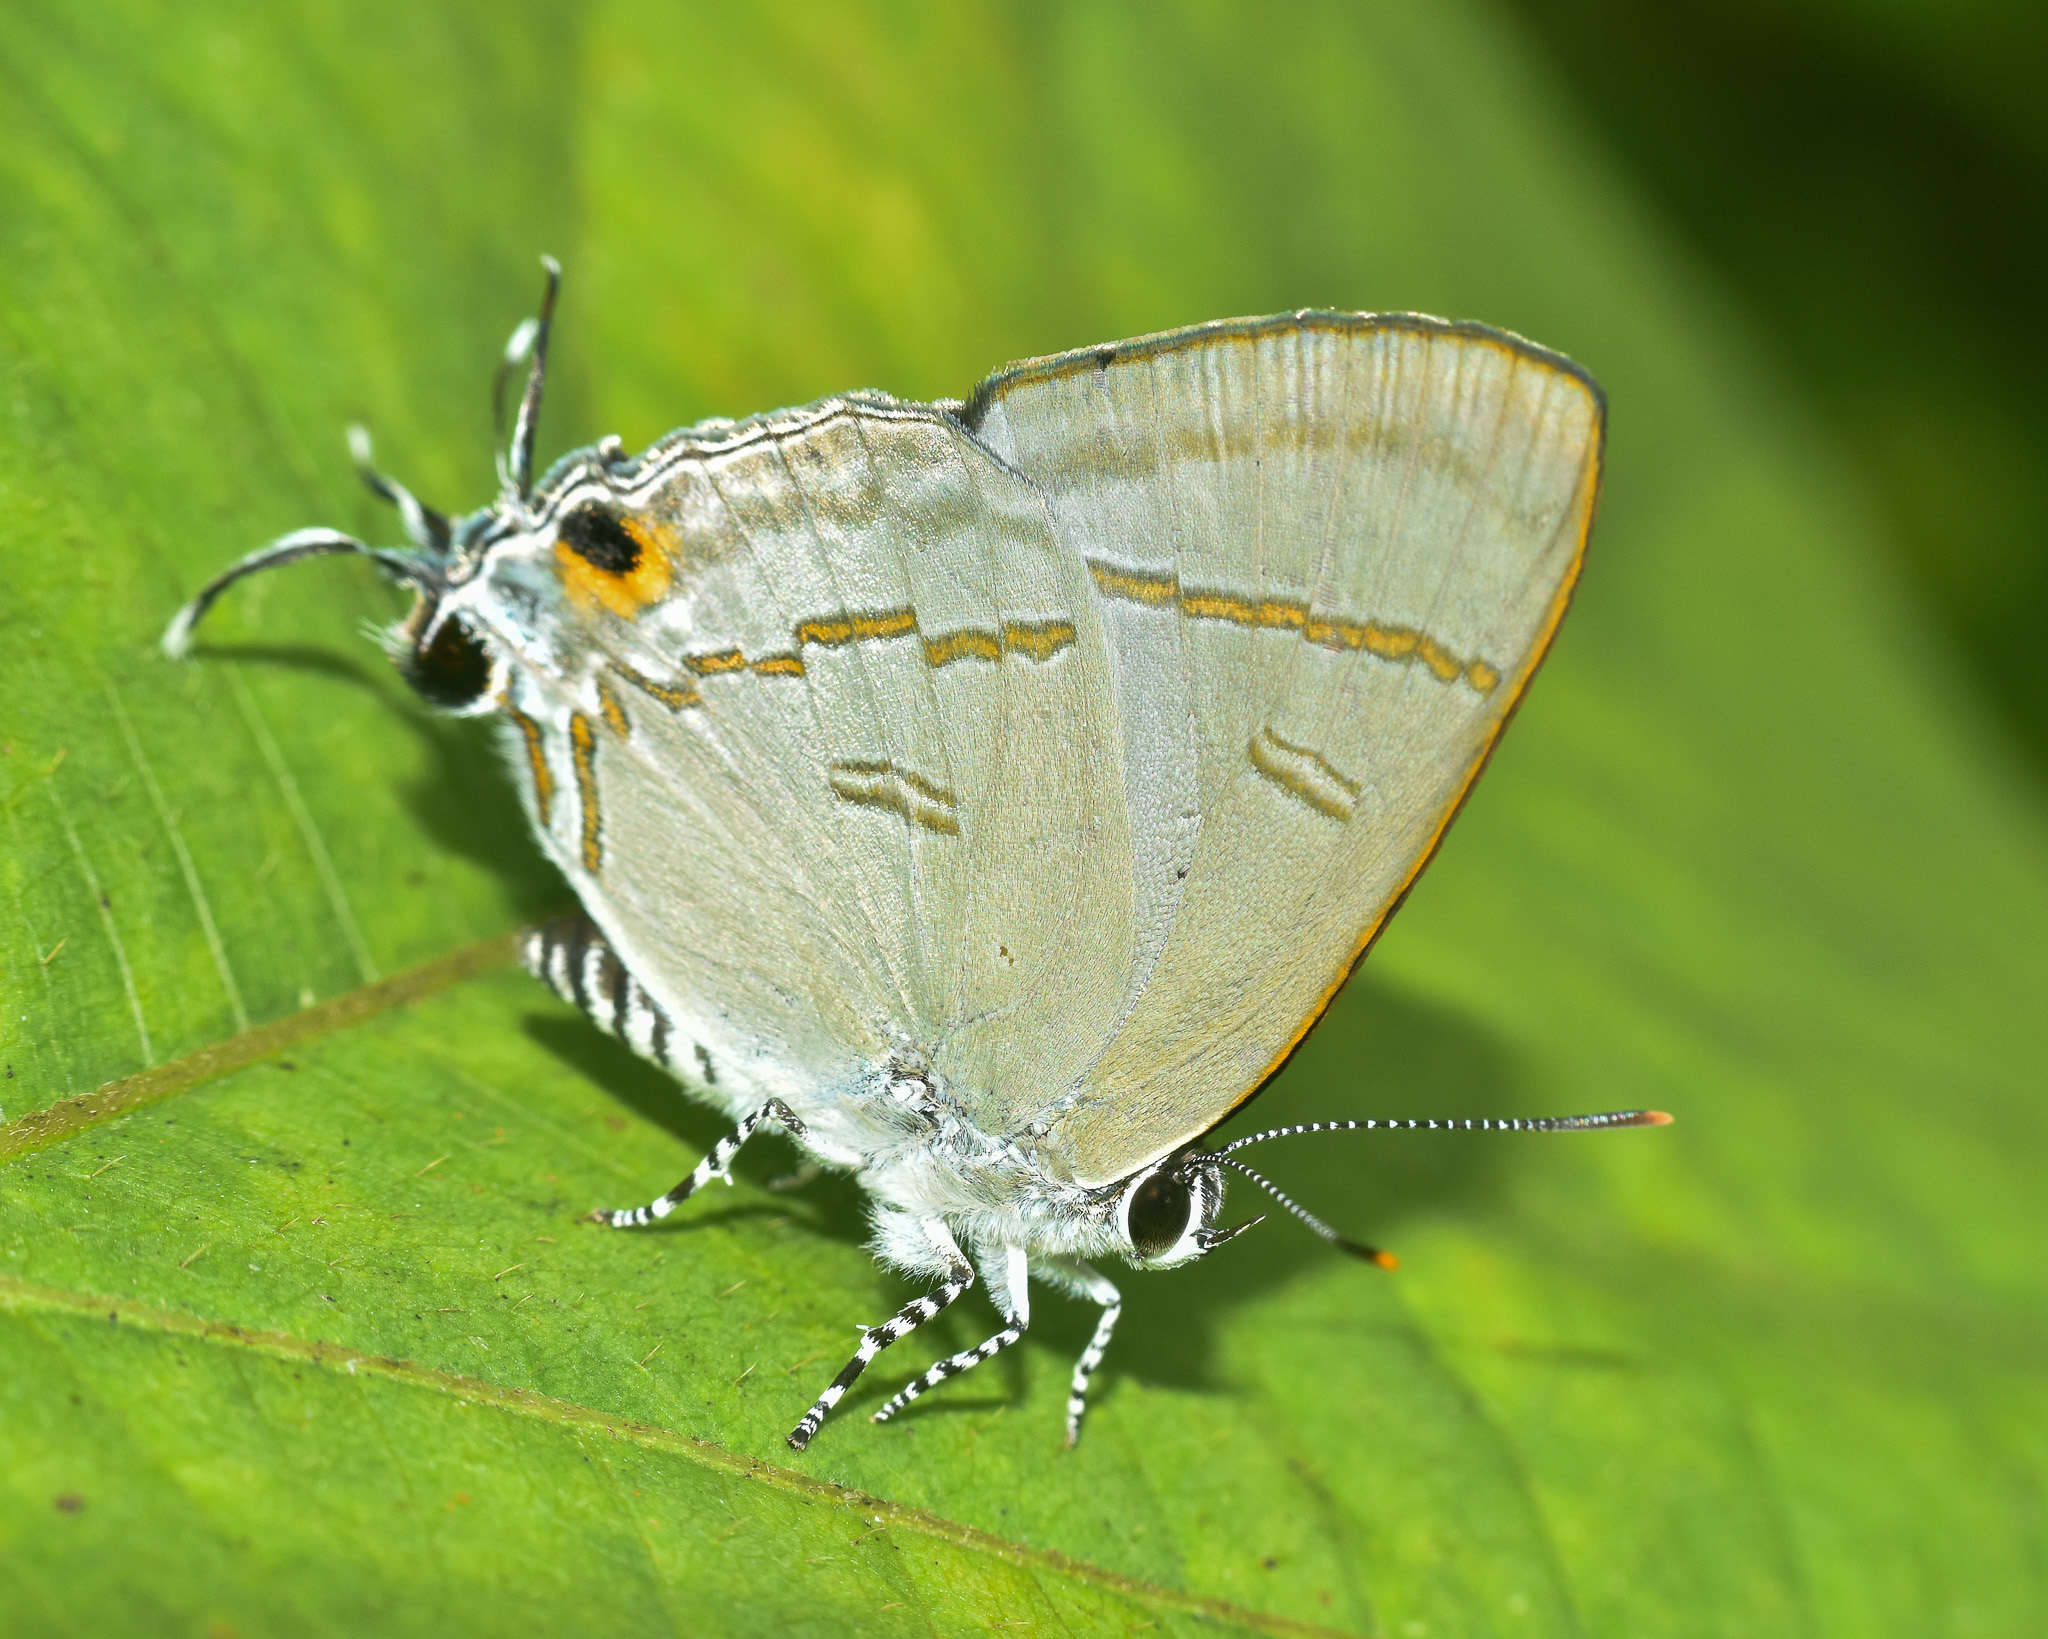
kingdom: Animalia
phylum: Arthropoda
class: Insecta
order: Lepidoptera
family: Lycaenidae
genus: Hypolycaena
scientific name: Hypolycaena erylus
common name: Common tit
